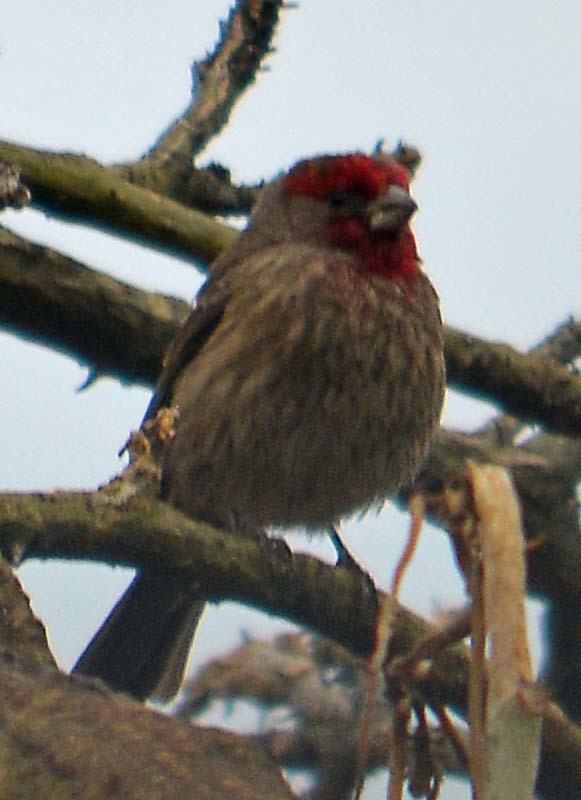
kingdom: Animalia
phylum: Chordata
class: Aves
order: Passeriformes
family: Fringillidae
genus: Haemorhous
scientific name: Haemorhous mexicanus
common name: House finch
